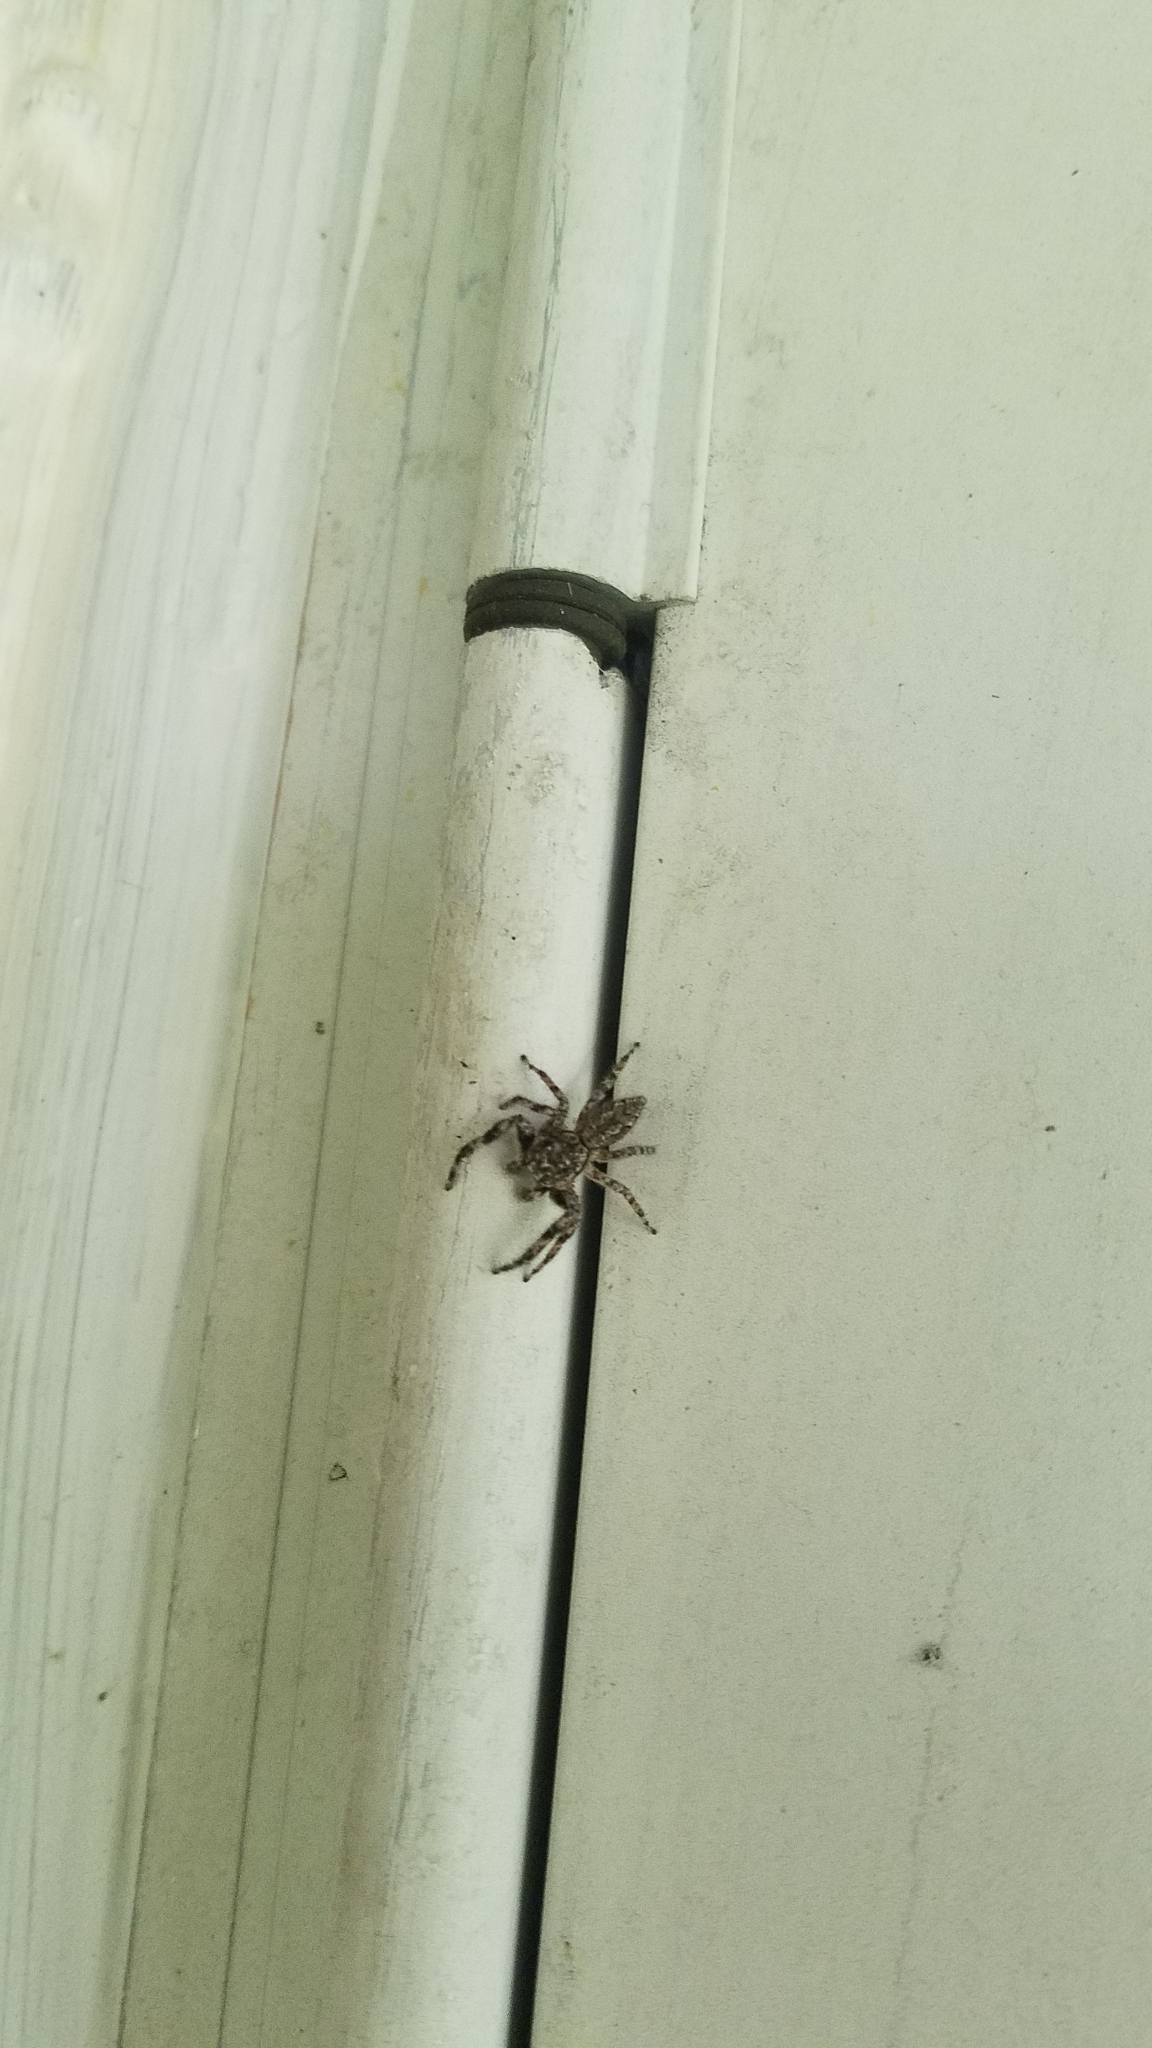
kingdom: Animalia
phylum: Arthropoda
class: Arachnida
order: Araneae
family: Salticidae
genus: Platycryptus
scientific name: Platycryptus undatus
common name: Tan jumping spider
